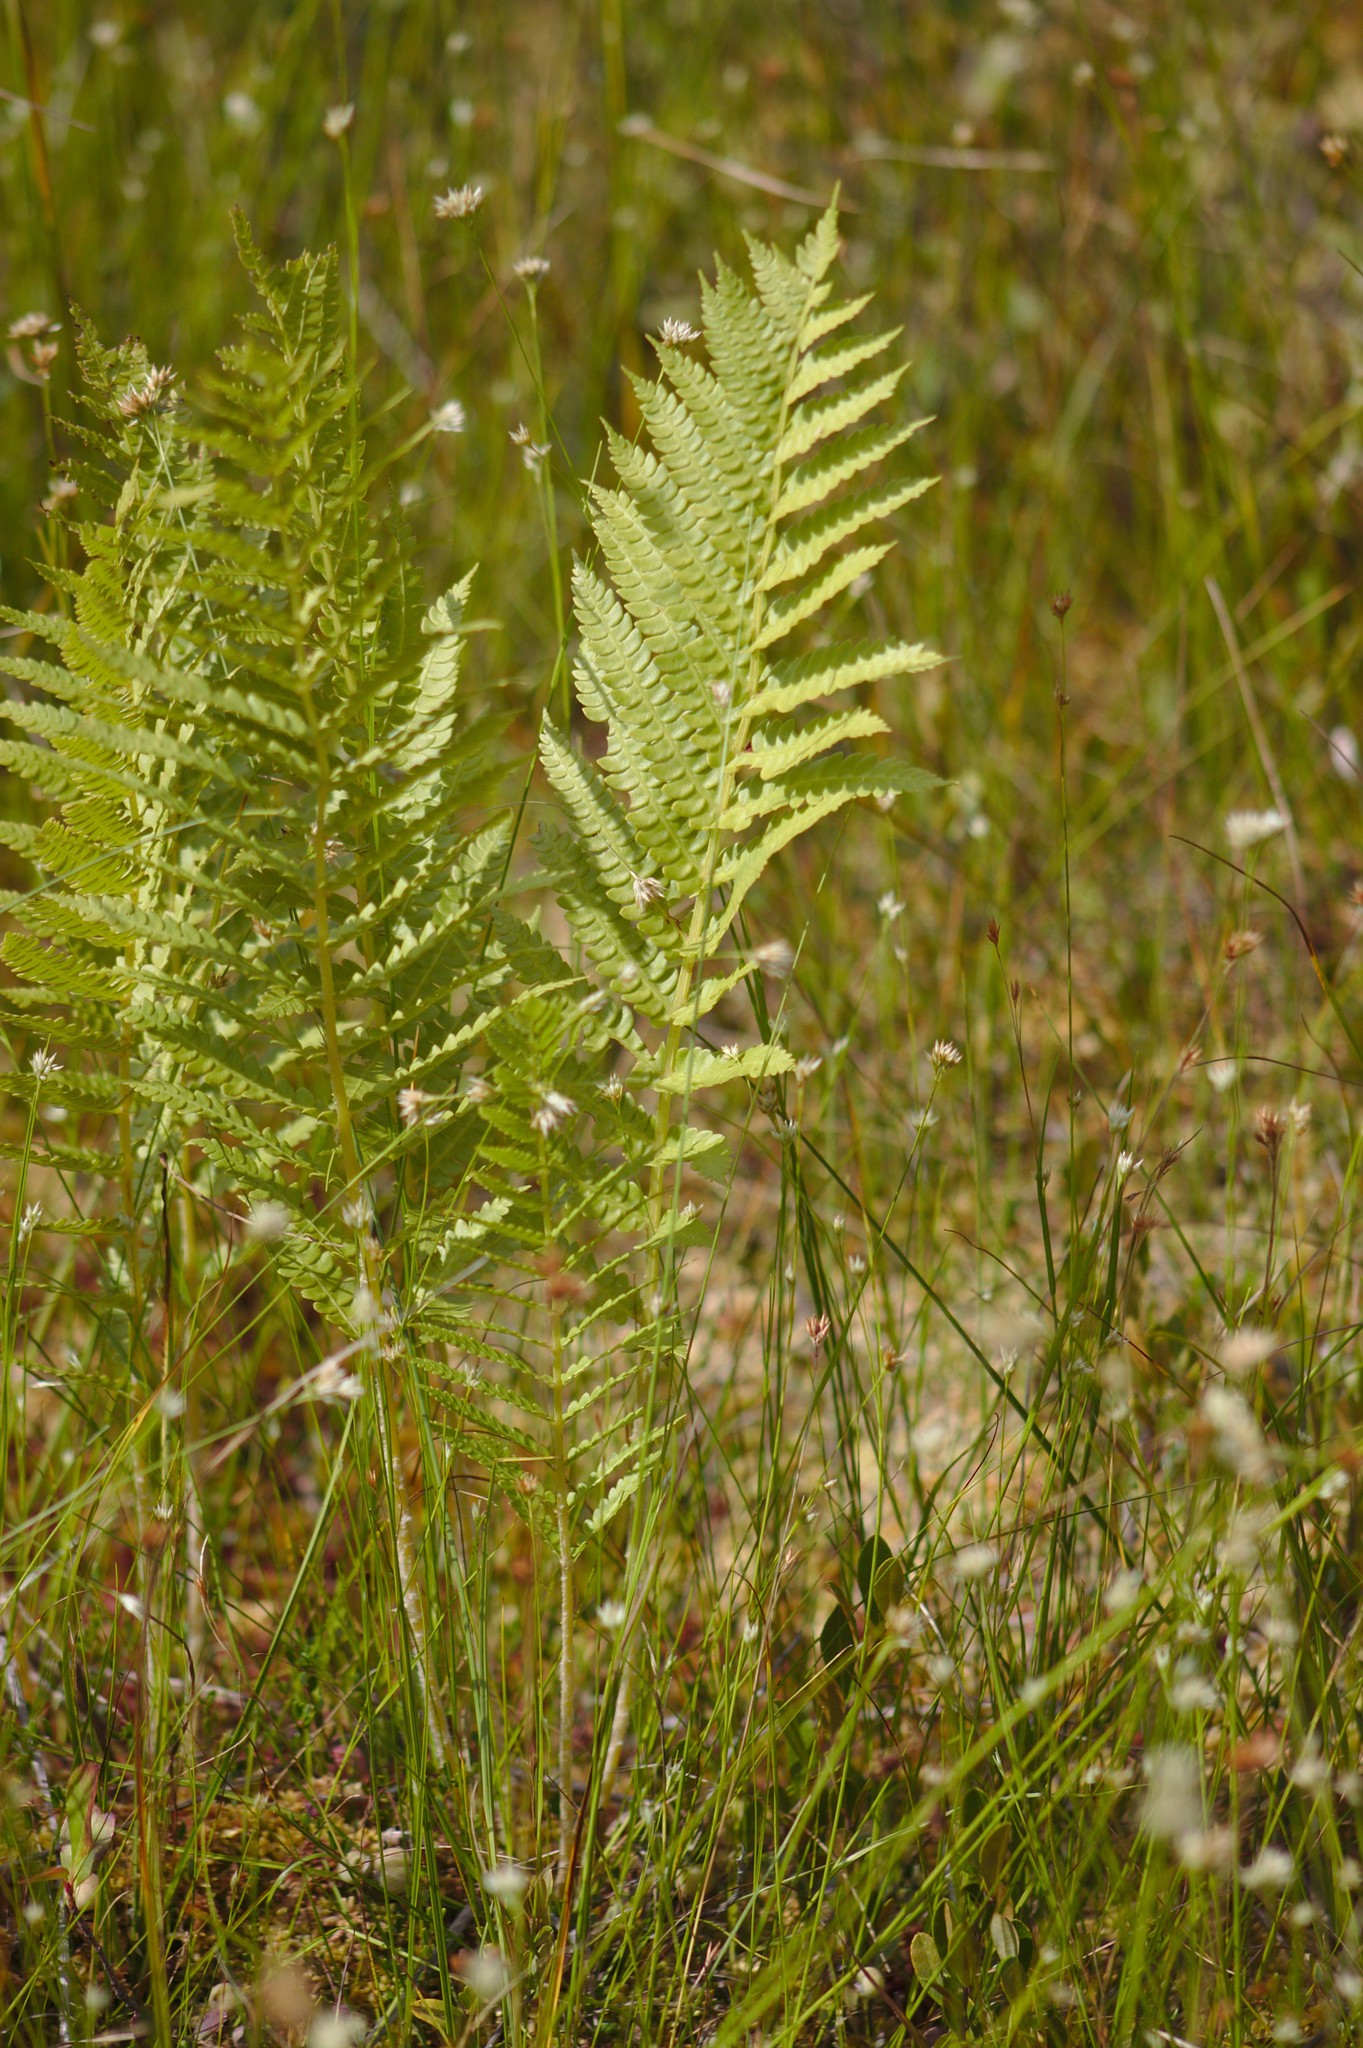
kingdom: Plantae
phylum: Tracheophyta
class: Polypodiopsida
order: Osmundales
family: Osmundaceae
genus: Osmundastrum
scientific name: Osmundastrum cinnamomeum
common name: Cinnamon fern
